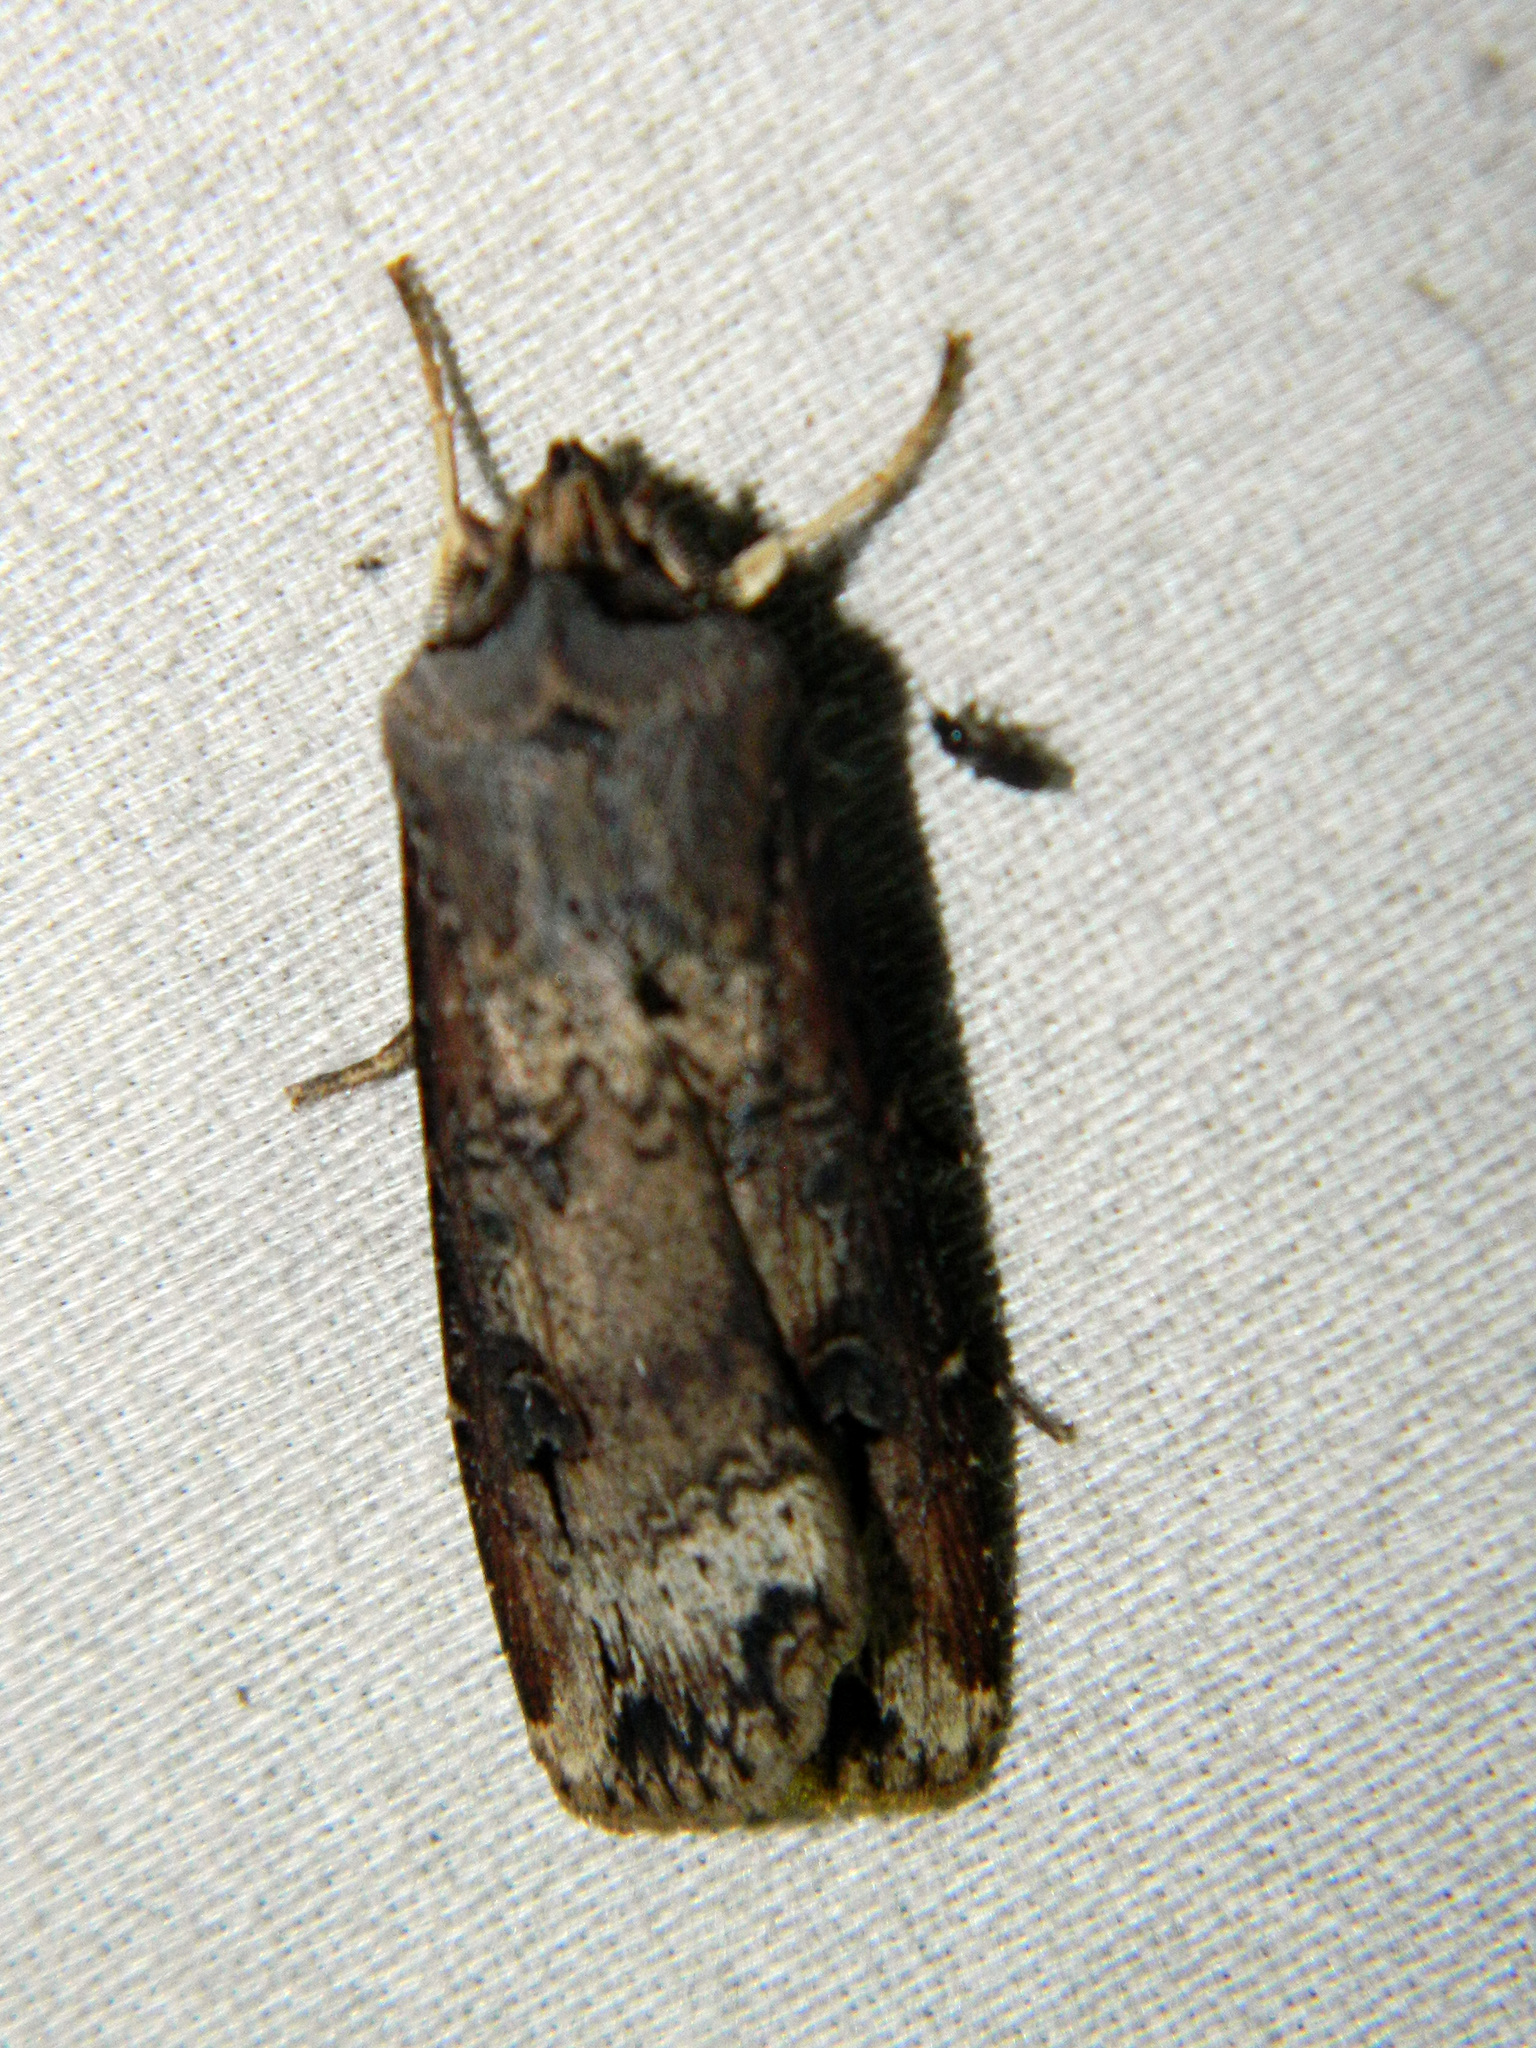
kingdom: Animalia
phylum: Arthropoda
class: Insecta
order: Lepidoptera
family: Noctuidae
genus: Agrotis
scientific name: Agrotis ipsilon
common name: Dark sword-grass
